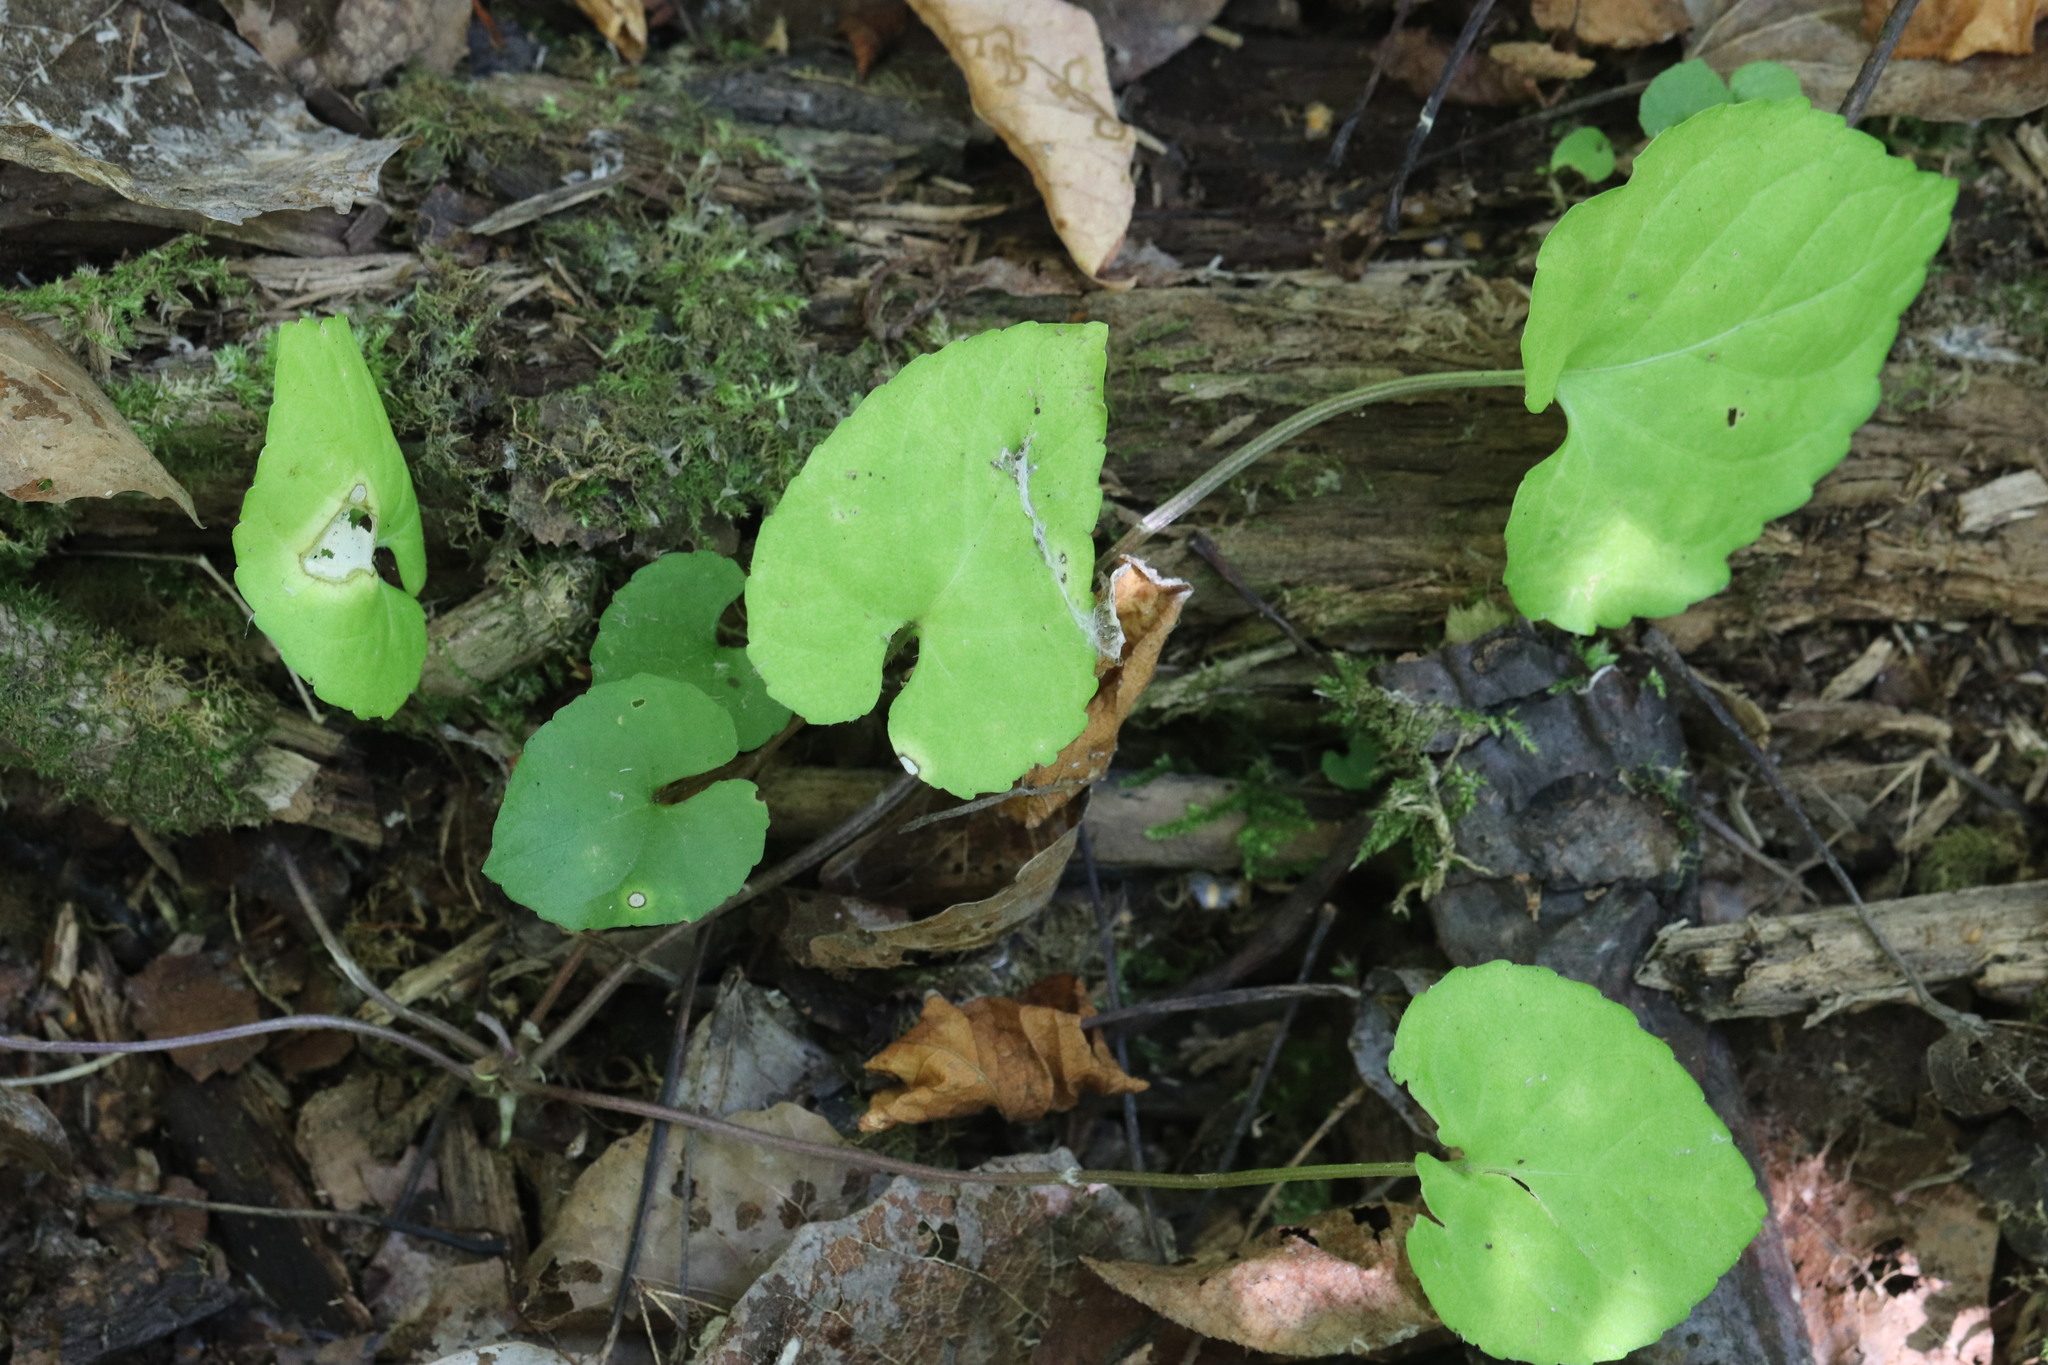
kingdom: Plantae
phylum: Tracheophyta
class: Magnoliopsida
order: Malpighiales
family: Violaceae
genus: Viola
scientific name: Viola selkirkii
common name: Selkirk's violet
